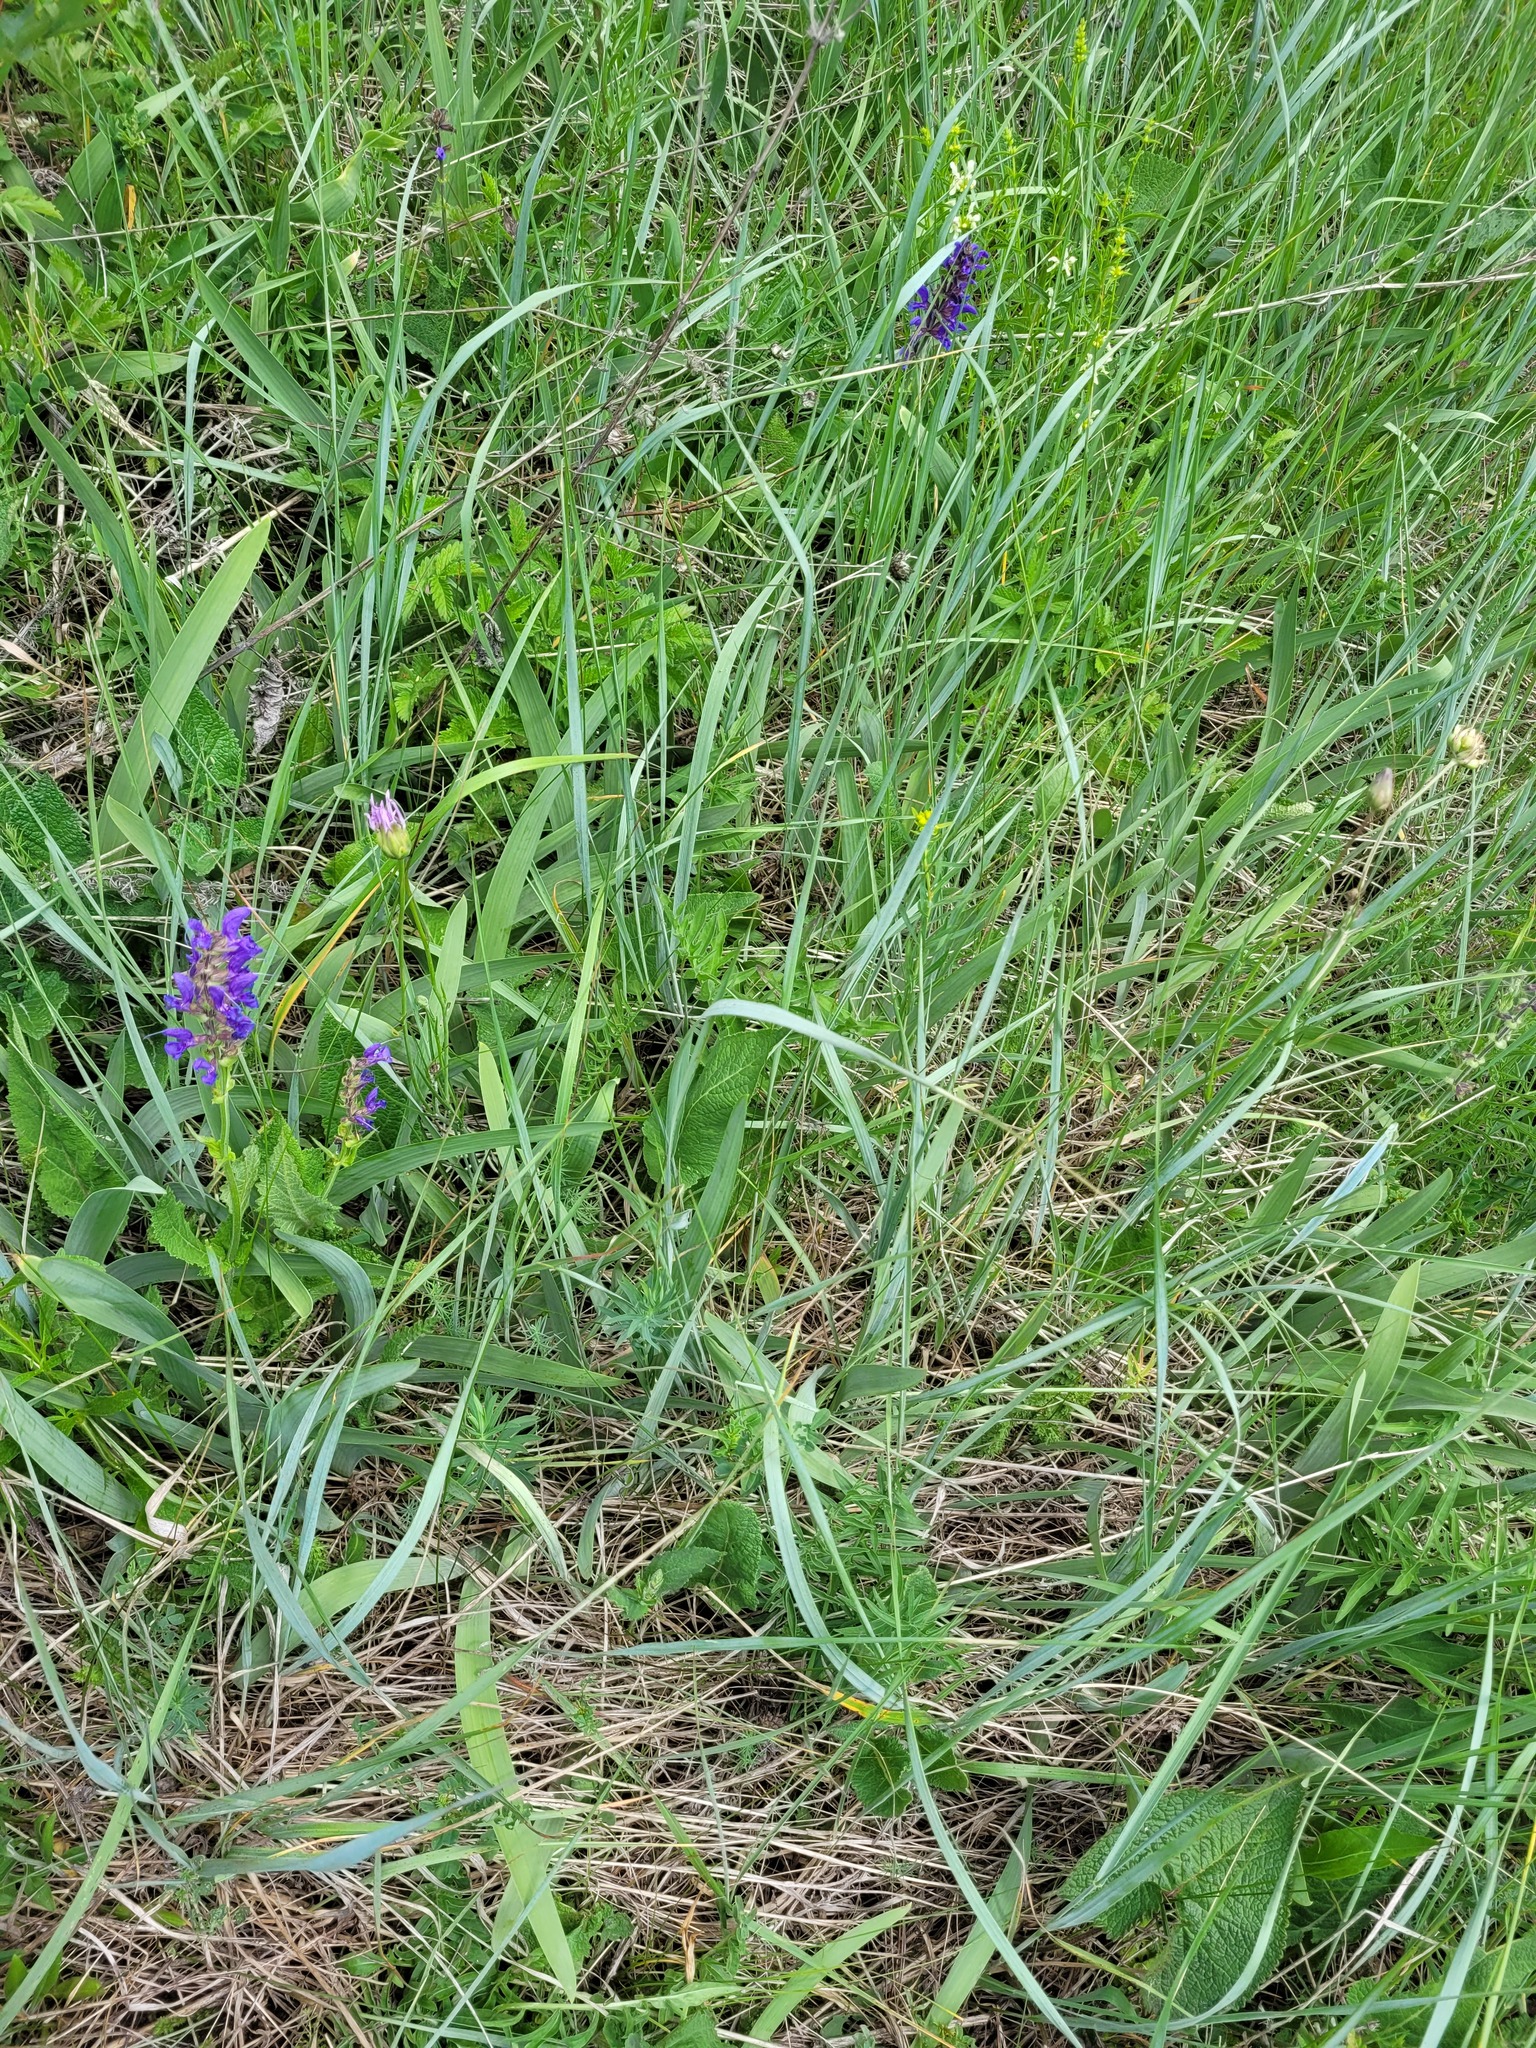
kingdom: Plantae
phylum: Tracheophyta
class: Liliopsida
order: Asparagales
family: Iridaceae
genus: Iris
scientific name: Iris aphylla
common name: Stool iris
